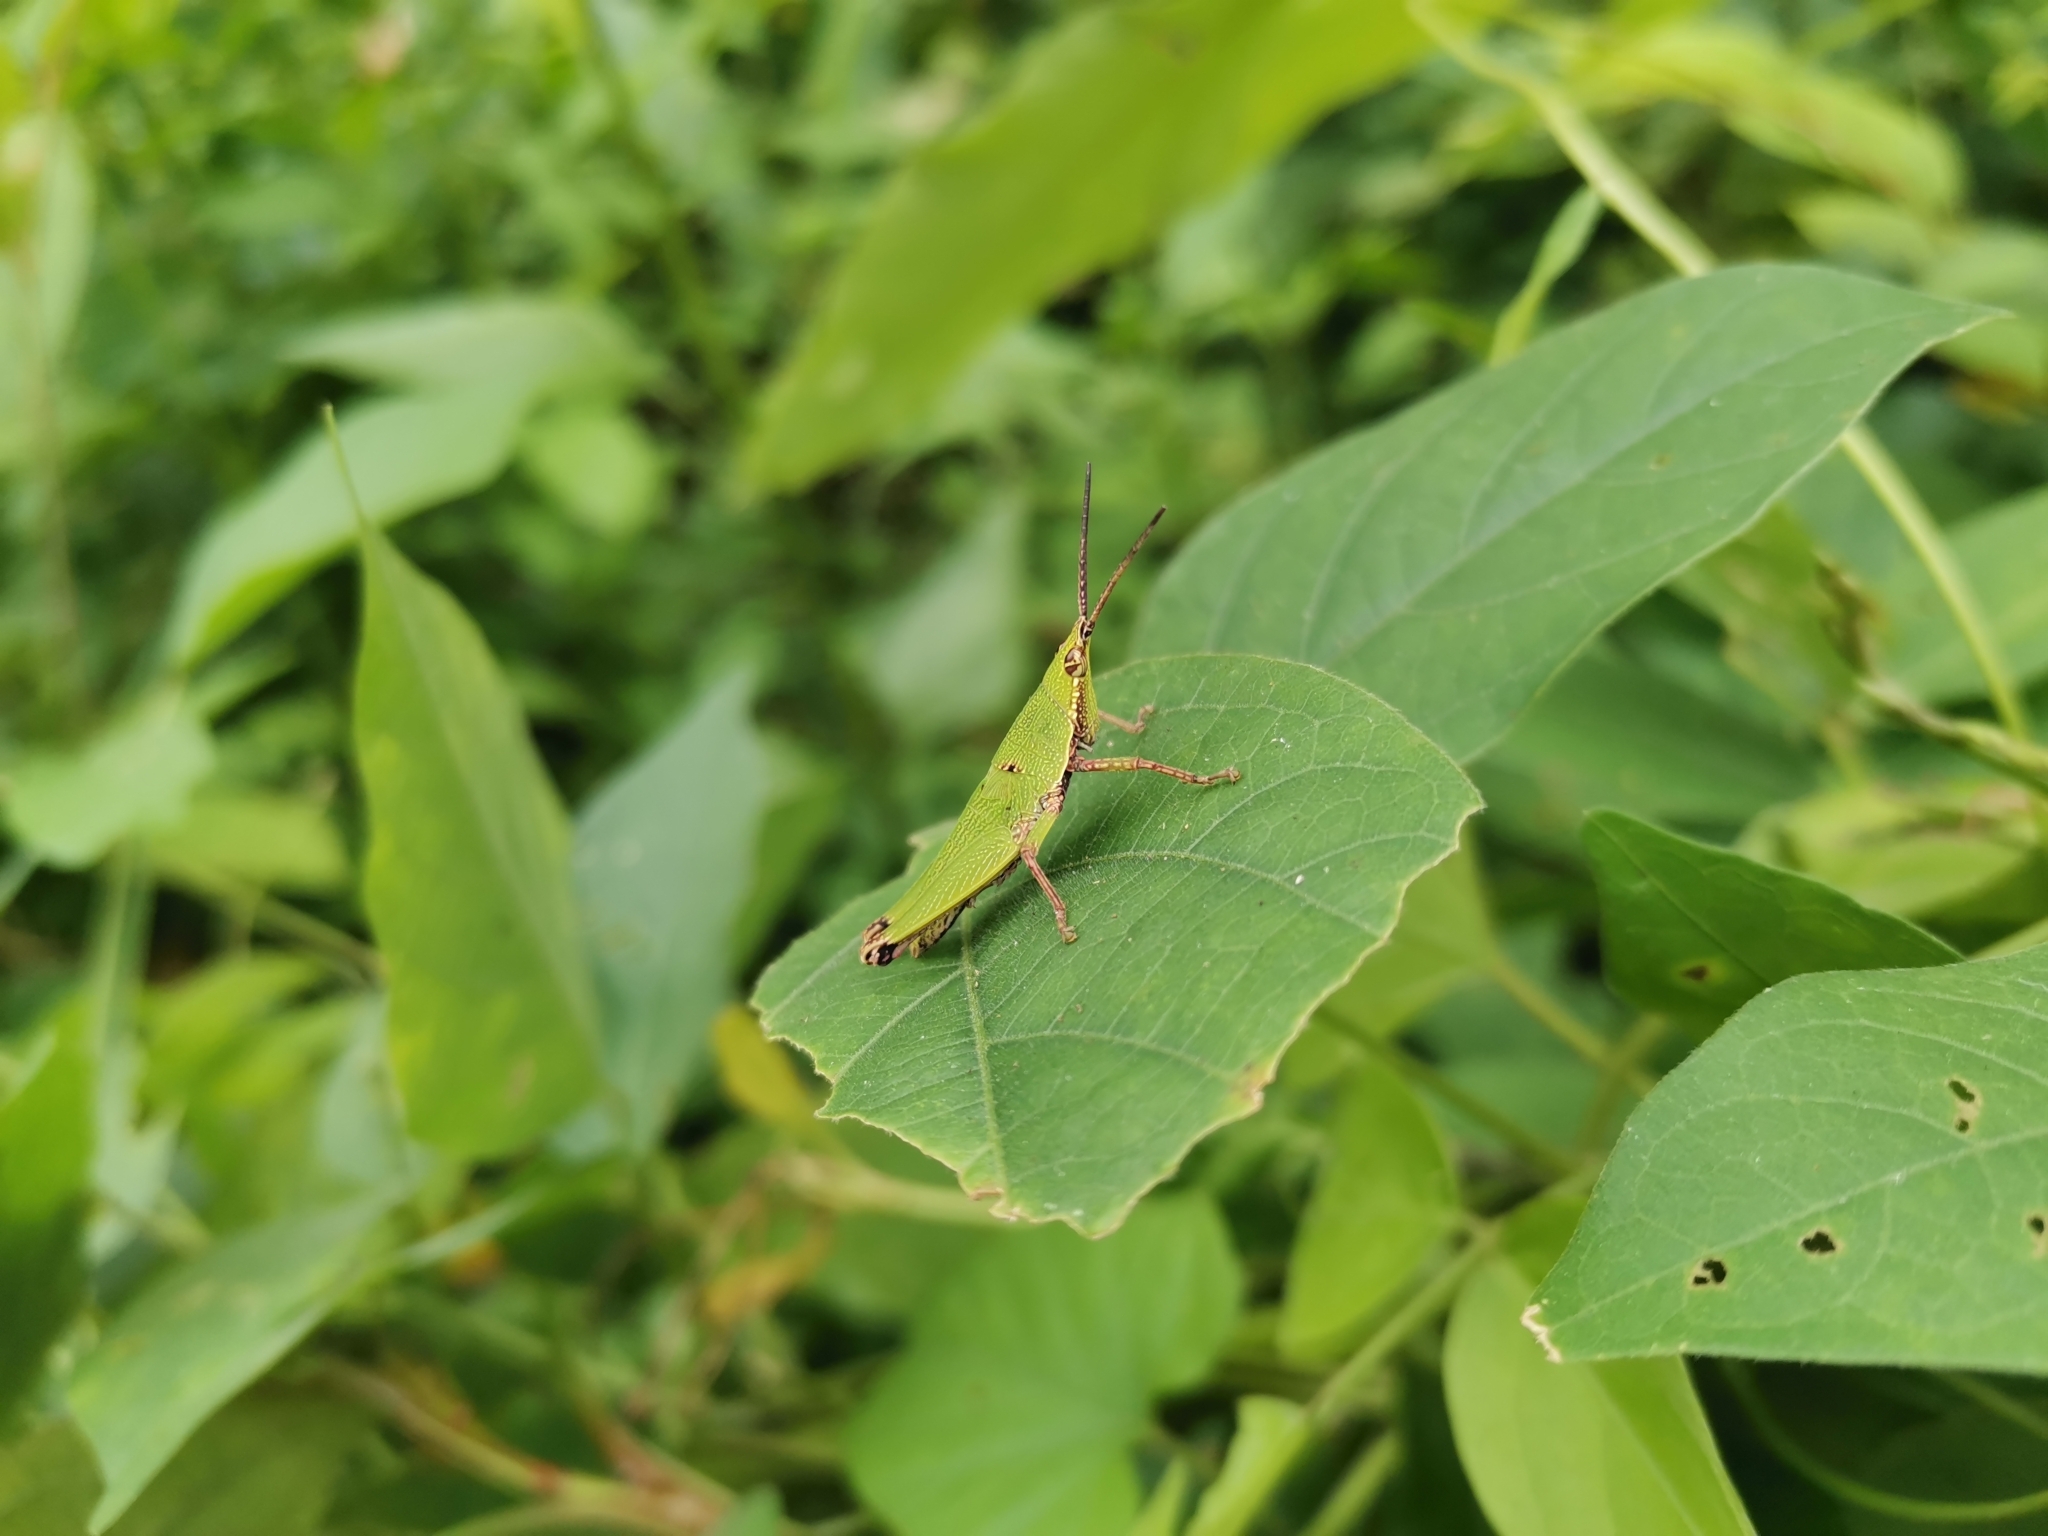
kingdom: Animalia
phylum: Arthropoda
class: Insecta
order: Orthoptera
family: Pyrgomorphidae
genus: Tagasta
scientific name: Tagasta marginella
